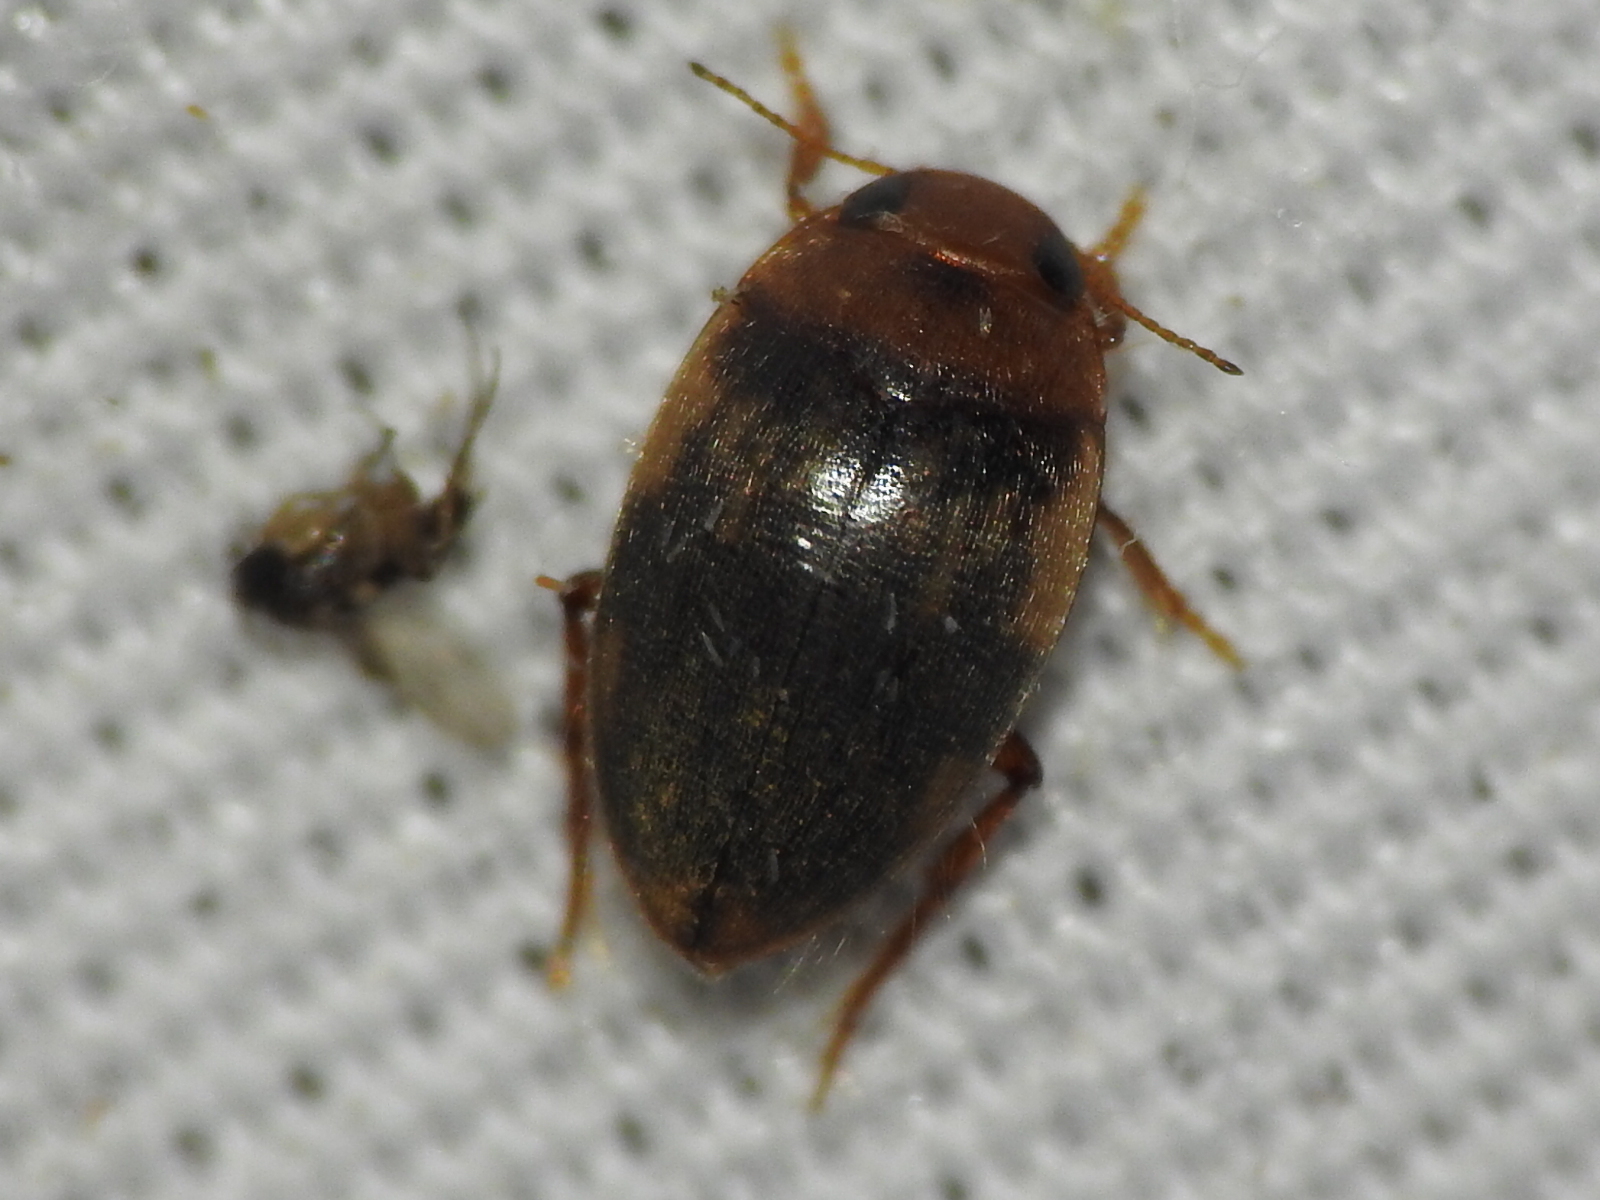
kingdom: Animalia
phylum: Arthropoda
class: Insecta
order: Coleoptera
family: Dytiscidae
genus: Neoporus
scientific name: Neoporus
